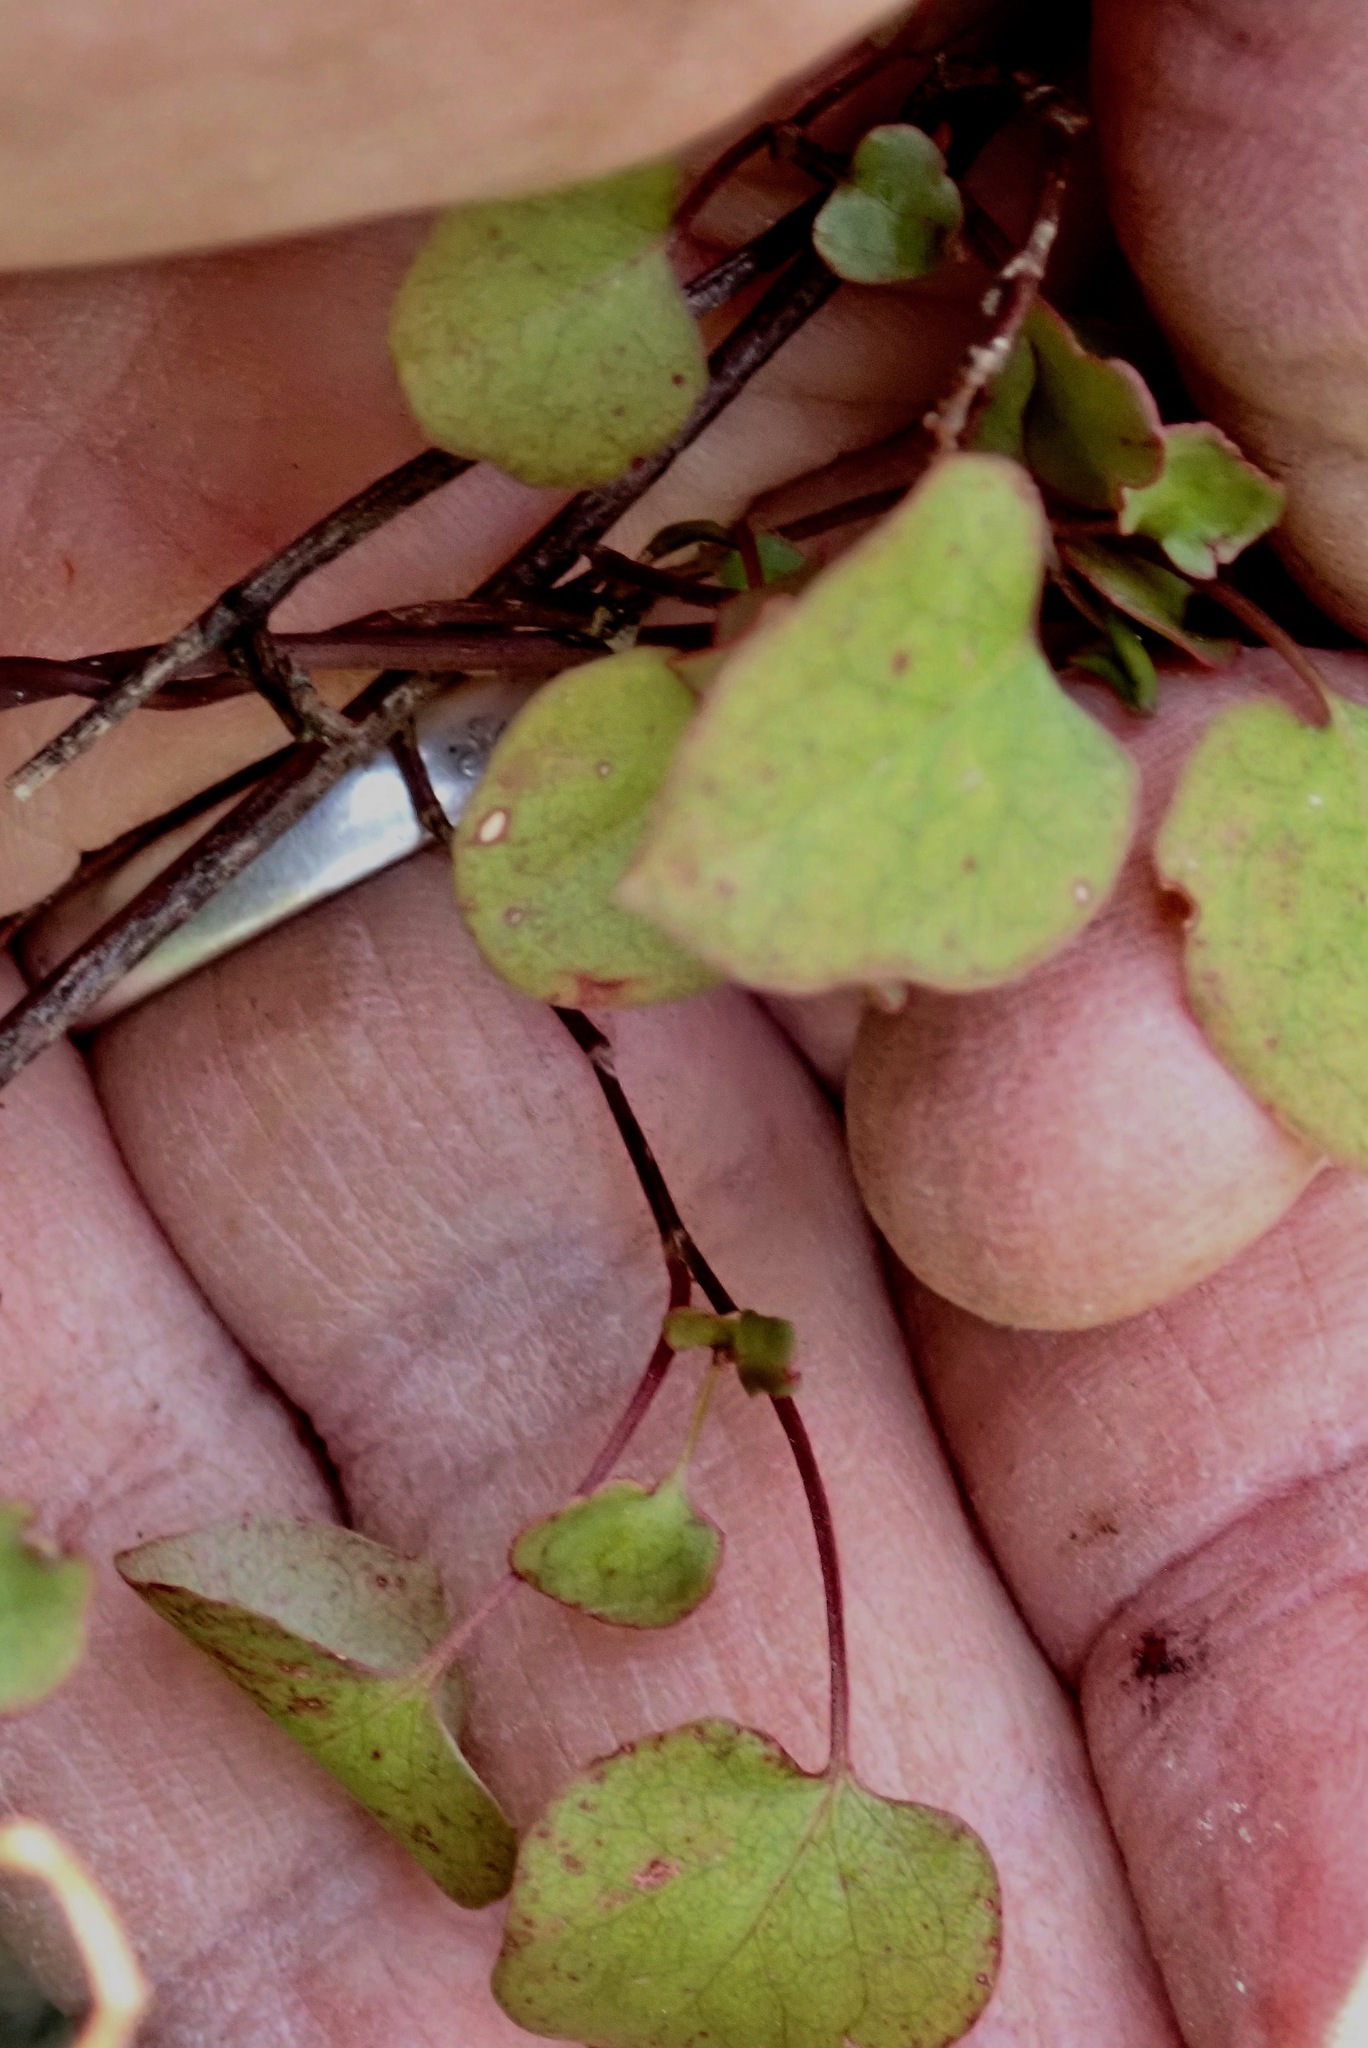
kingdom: Plantae
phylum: Tracheophyta
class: Magnoliopsida
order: Caryophyllales
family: Polygonaceae
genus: Muehlenbeckia
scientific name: Muehlenbeckia australis
